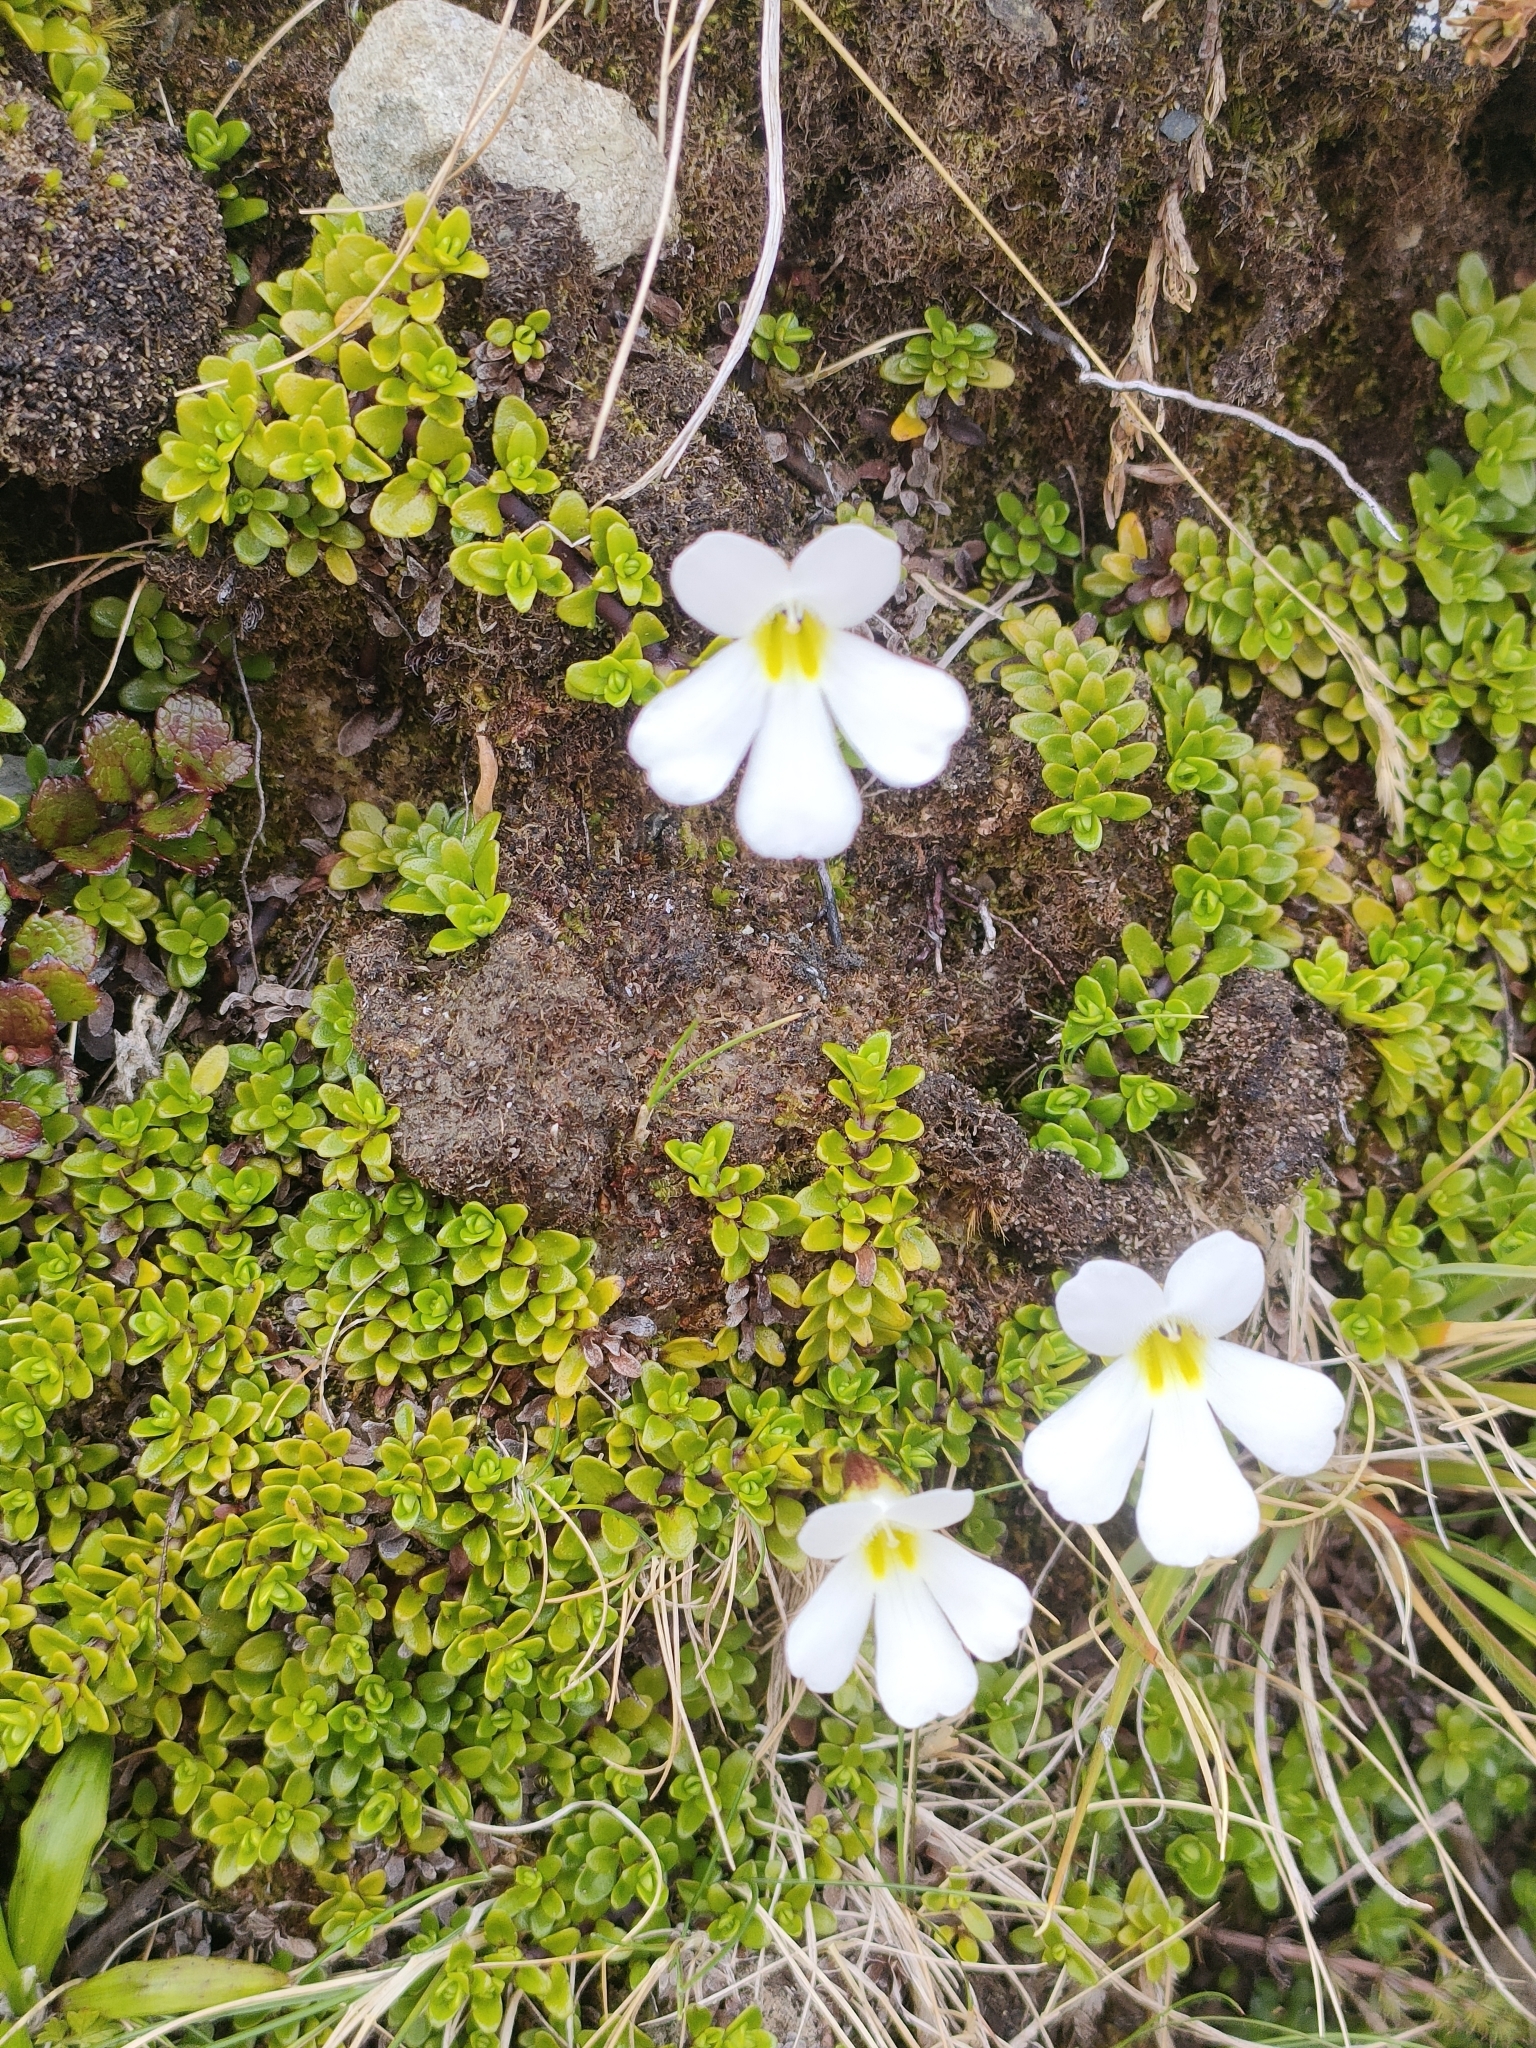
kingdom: Plantae
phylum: Tracheophyta
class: Magnoliopsida
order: Lamiales
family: Plantaginaceae
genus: Ourisia
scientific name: Ourisia caespitosa
